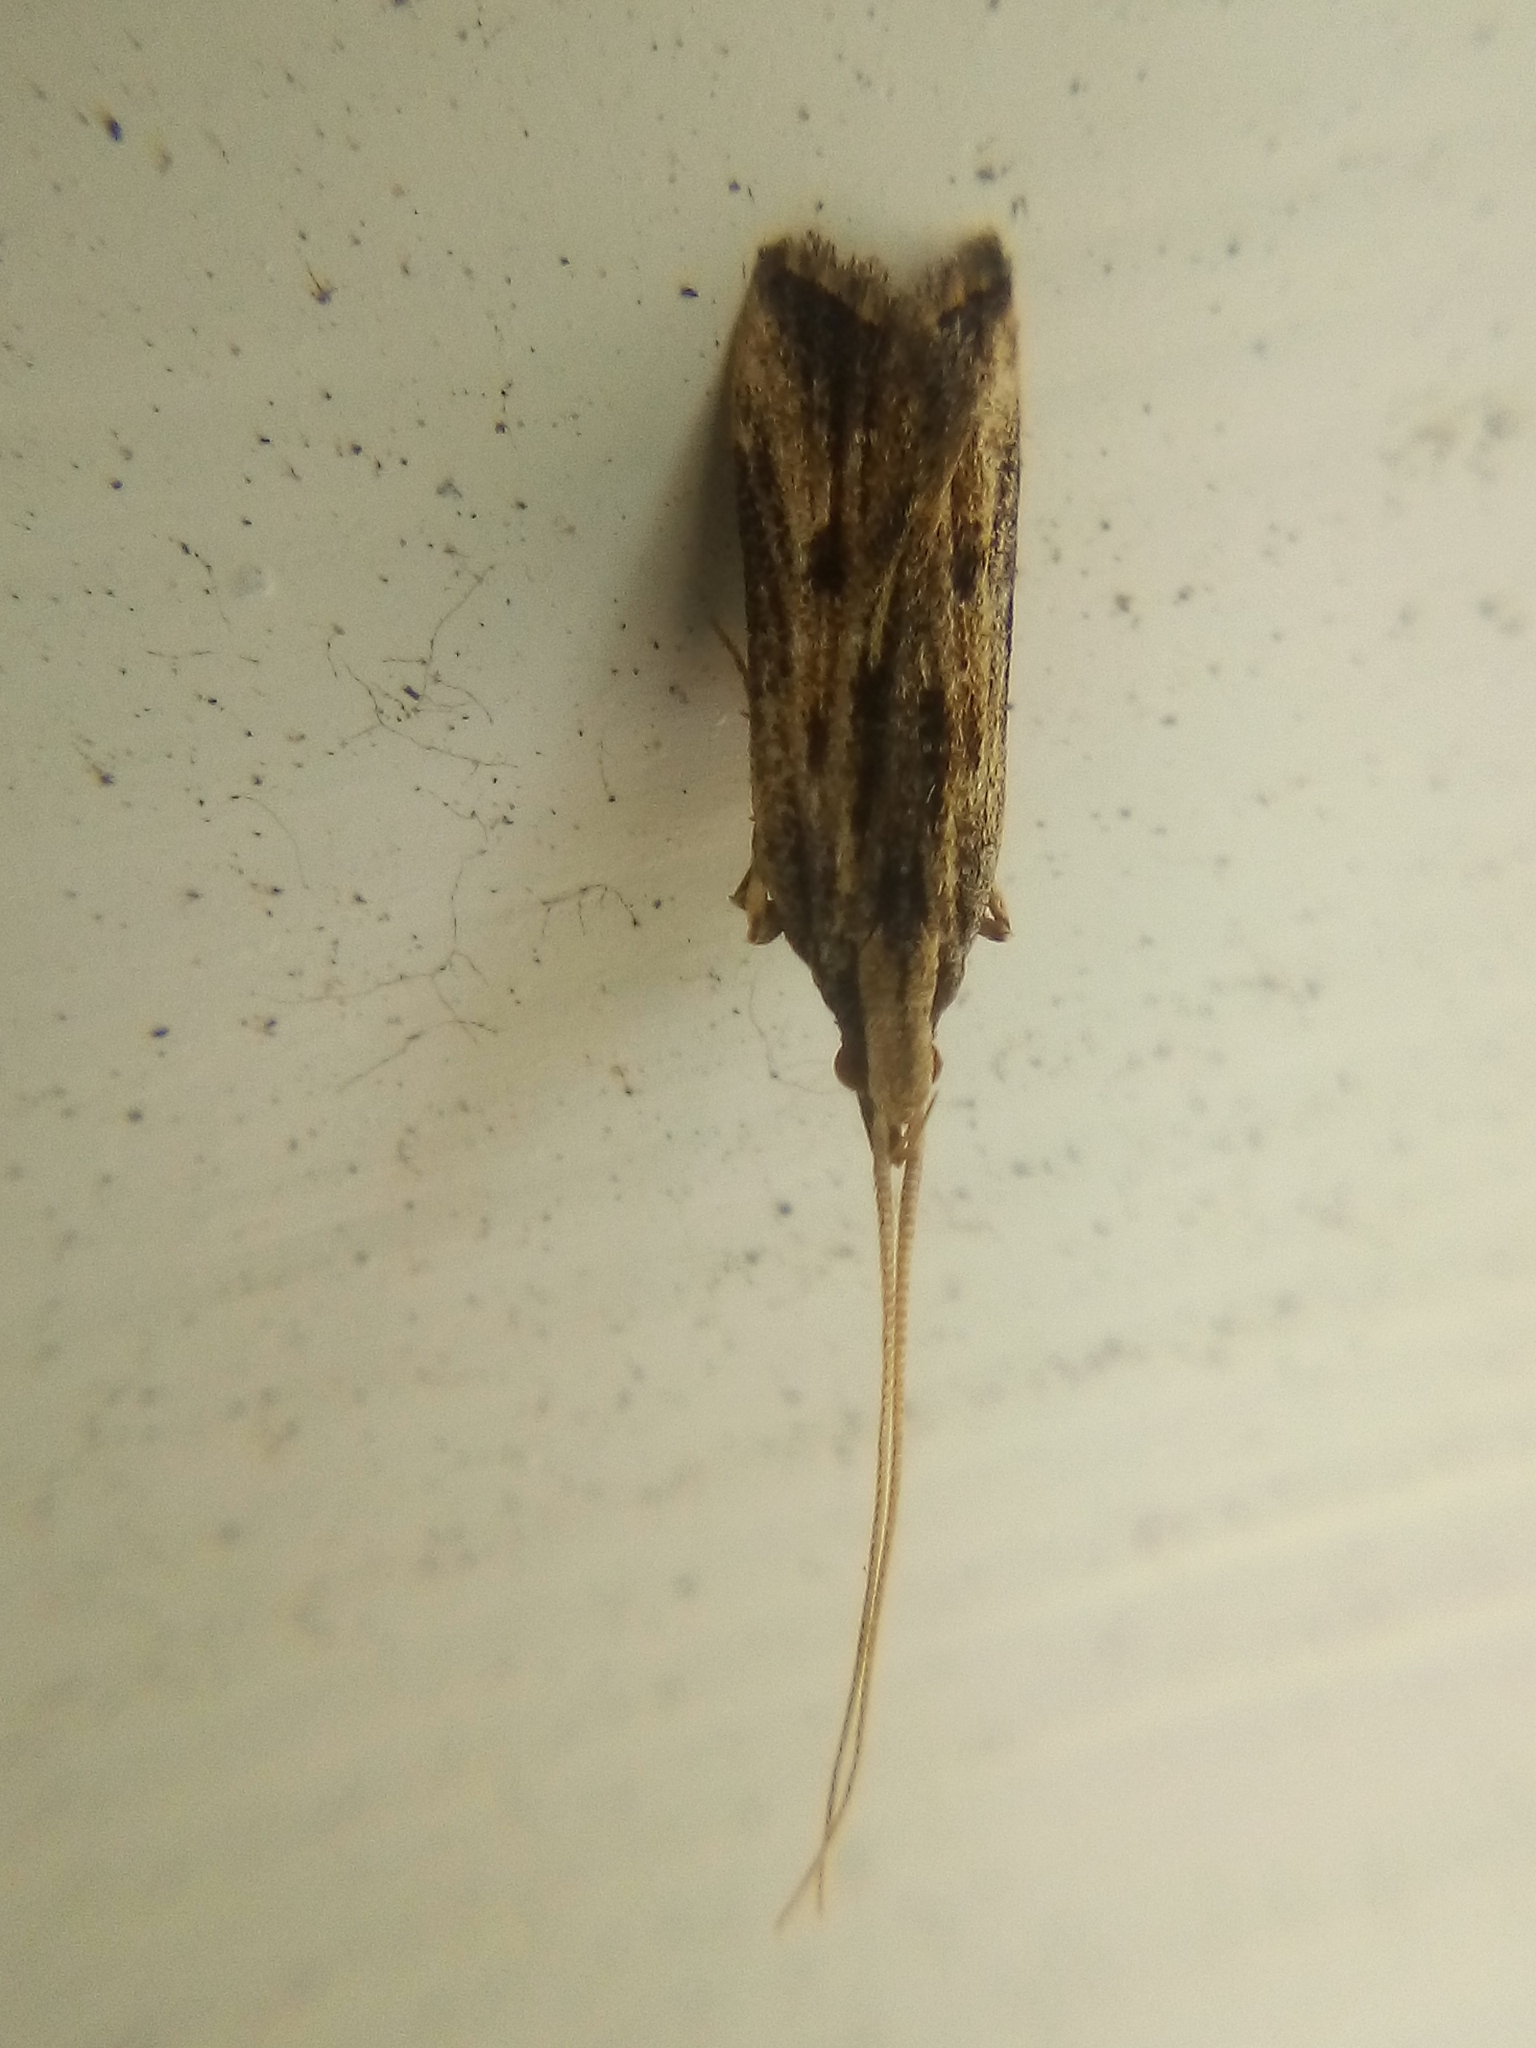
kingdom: Animalia
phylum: Arthropoda
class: Insecta
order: Lepidoptera
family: Lecithoceridae
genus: Sarisophora
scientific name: Sarisophora leucoscia
